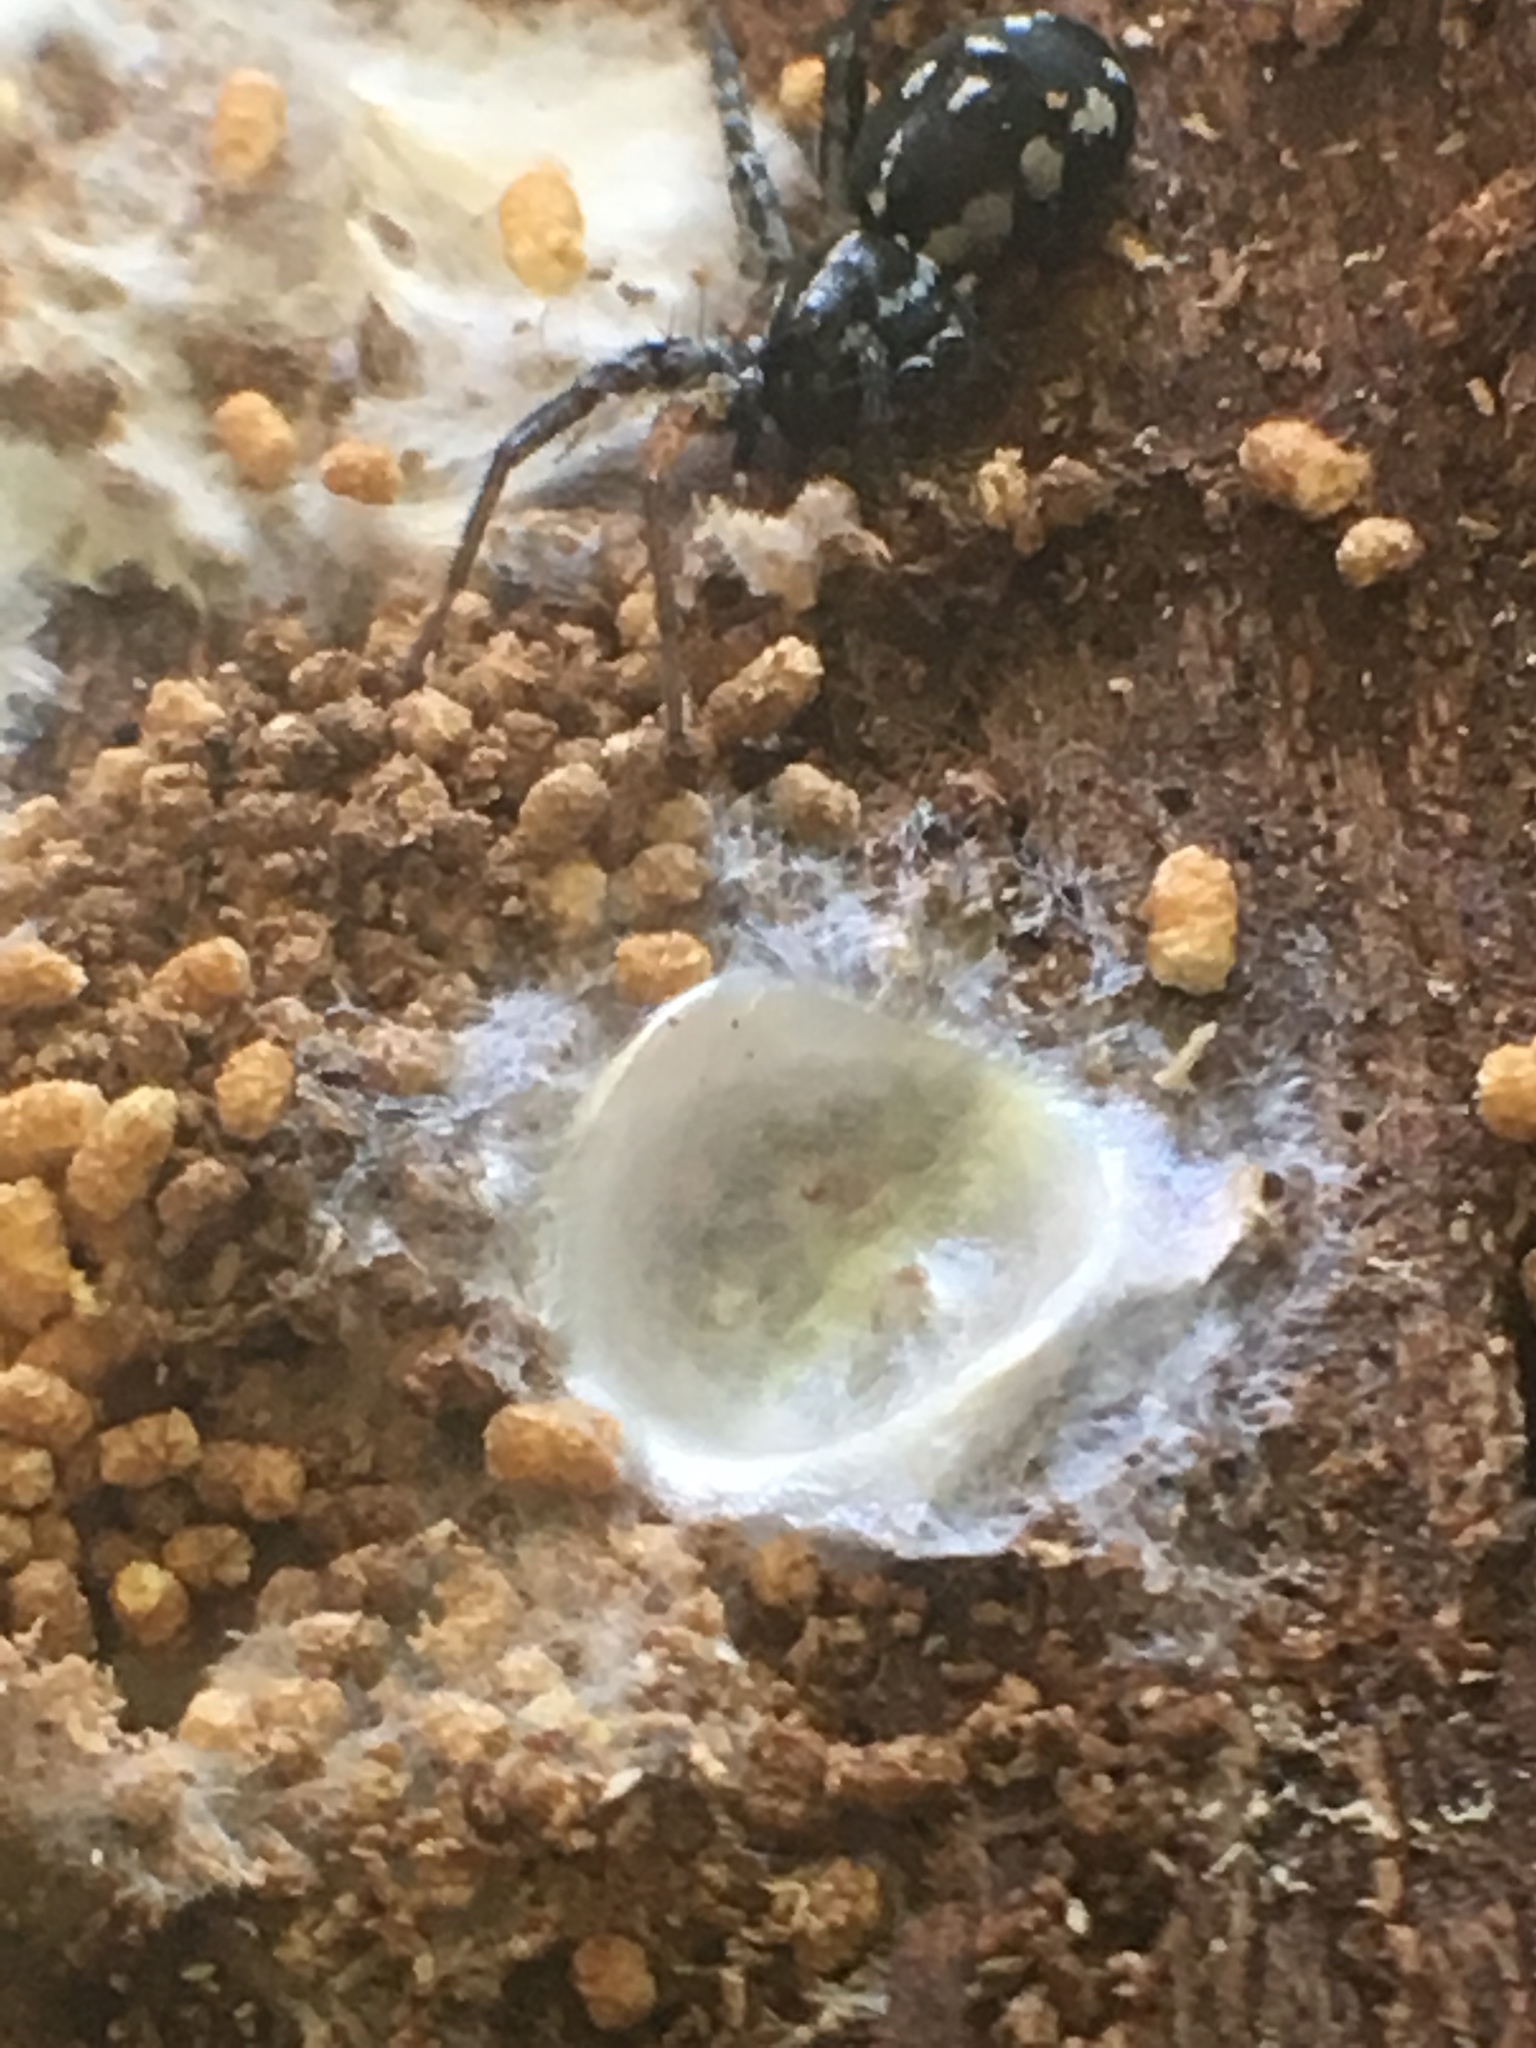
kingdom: Animalia
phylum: Arthropoda
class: Arachnida
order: Araneae
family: Corinnidae
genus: Nyssus
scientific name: Nyssus coloripes
